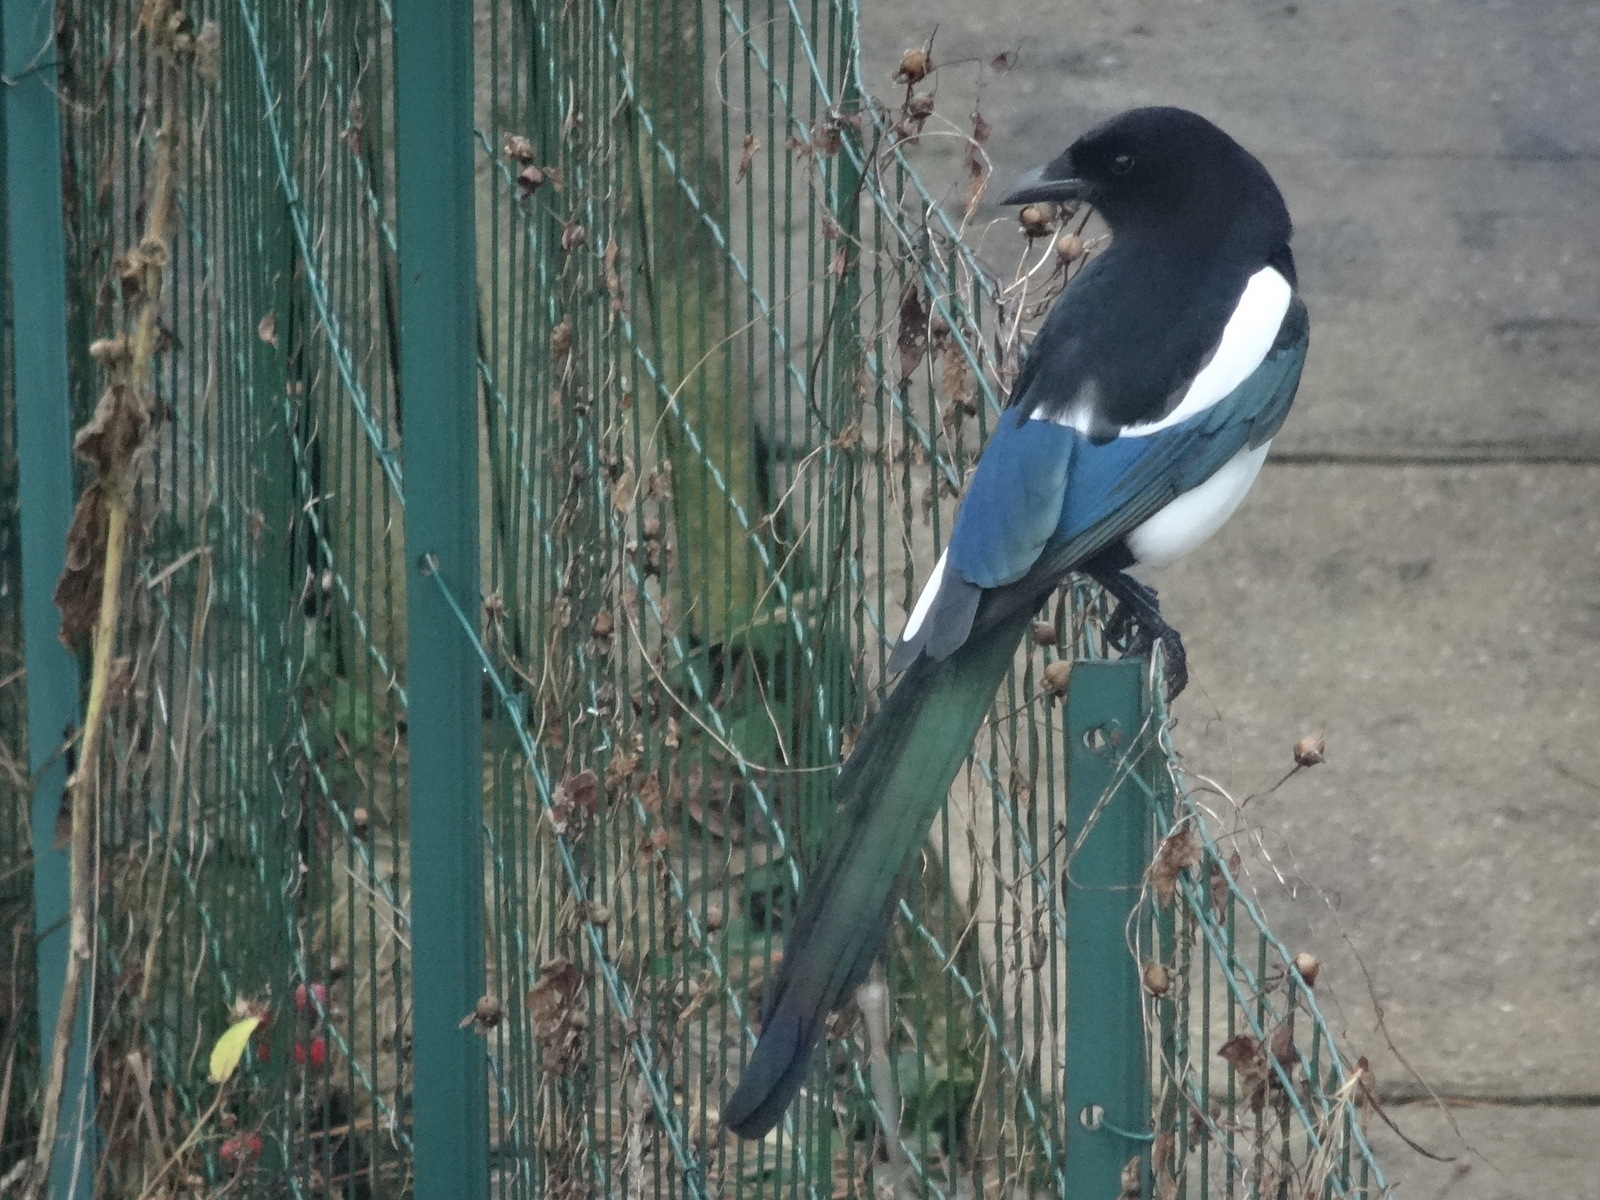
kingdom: Animalia
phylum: Chordata
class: Aves
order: Passeriformes
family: Corvidae
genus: Pica
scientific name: Pica pica
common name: Eurasian magpie
